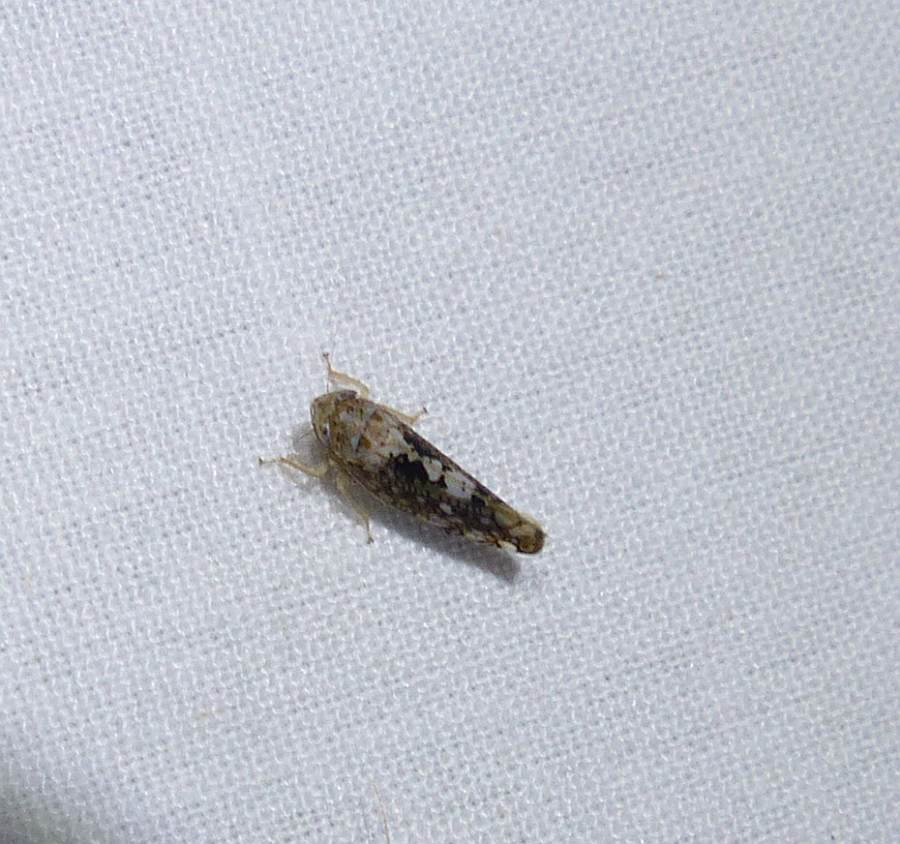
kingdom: Animalia
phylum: Arthropoda
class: Insecta
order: Hemiptera
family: Cicadellidae
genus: Prescottia
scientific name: Prescottia lobata
